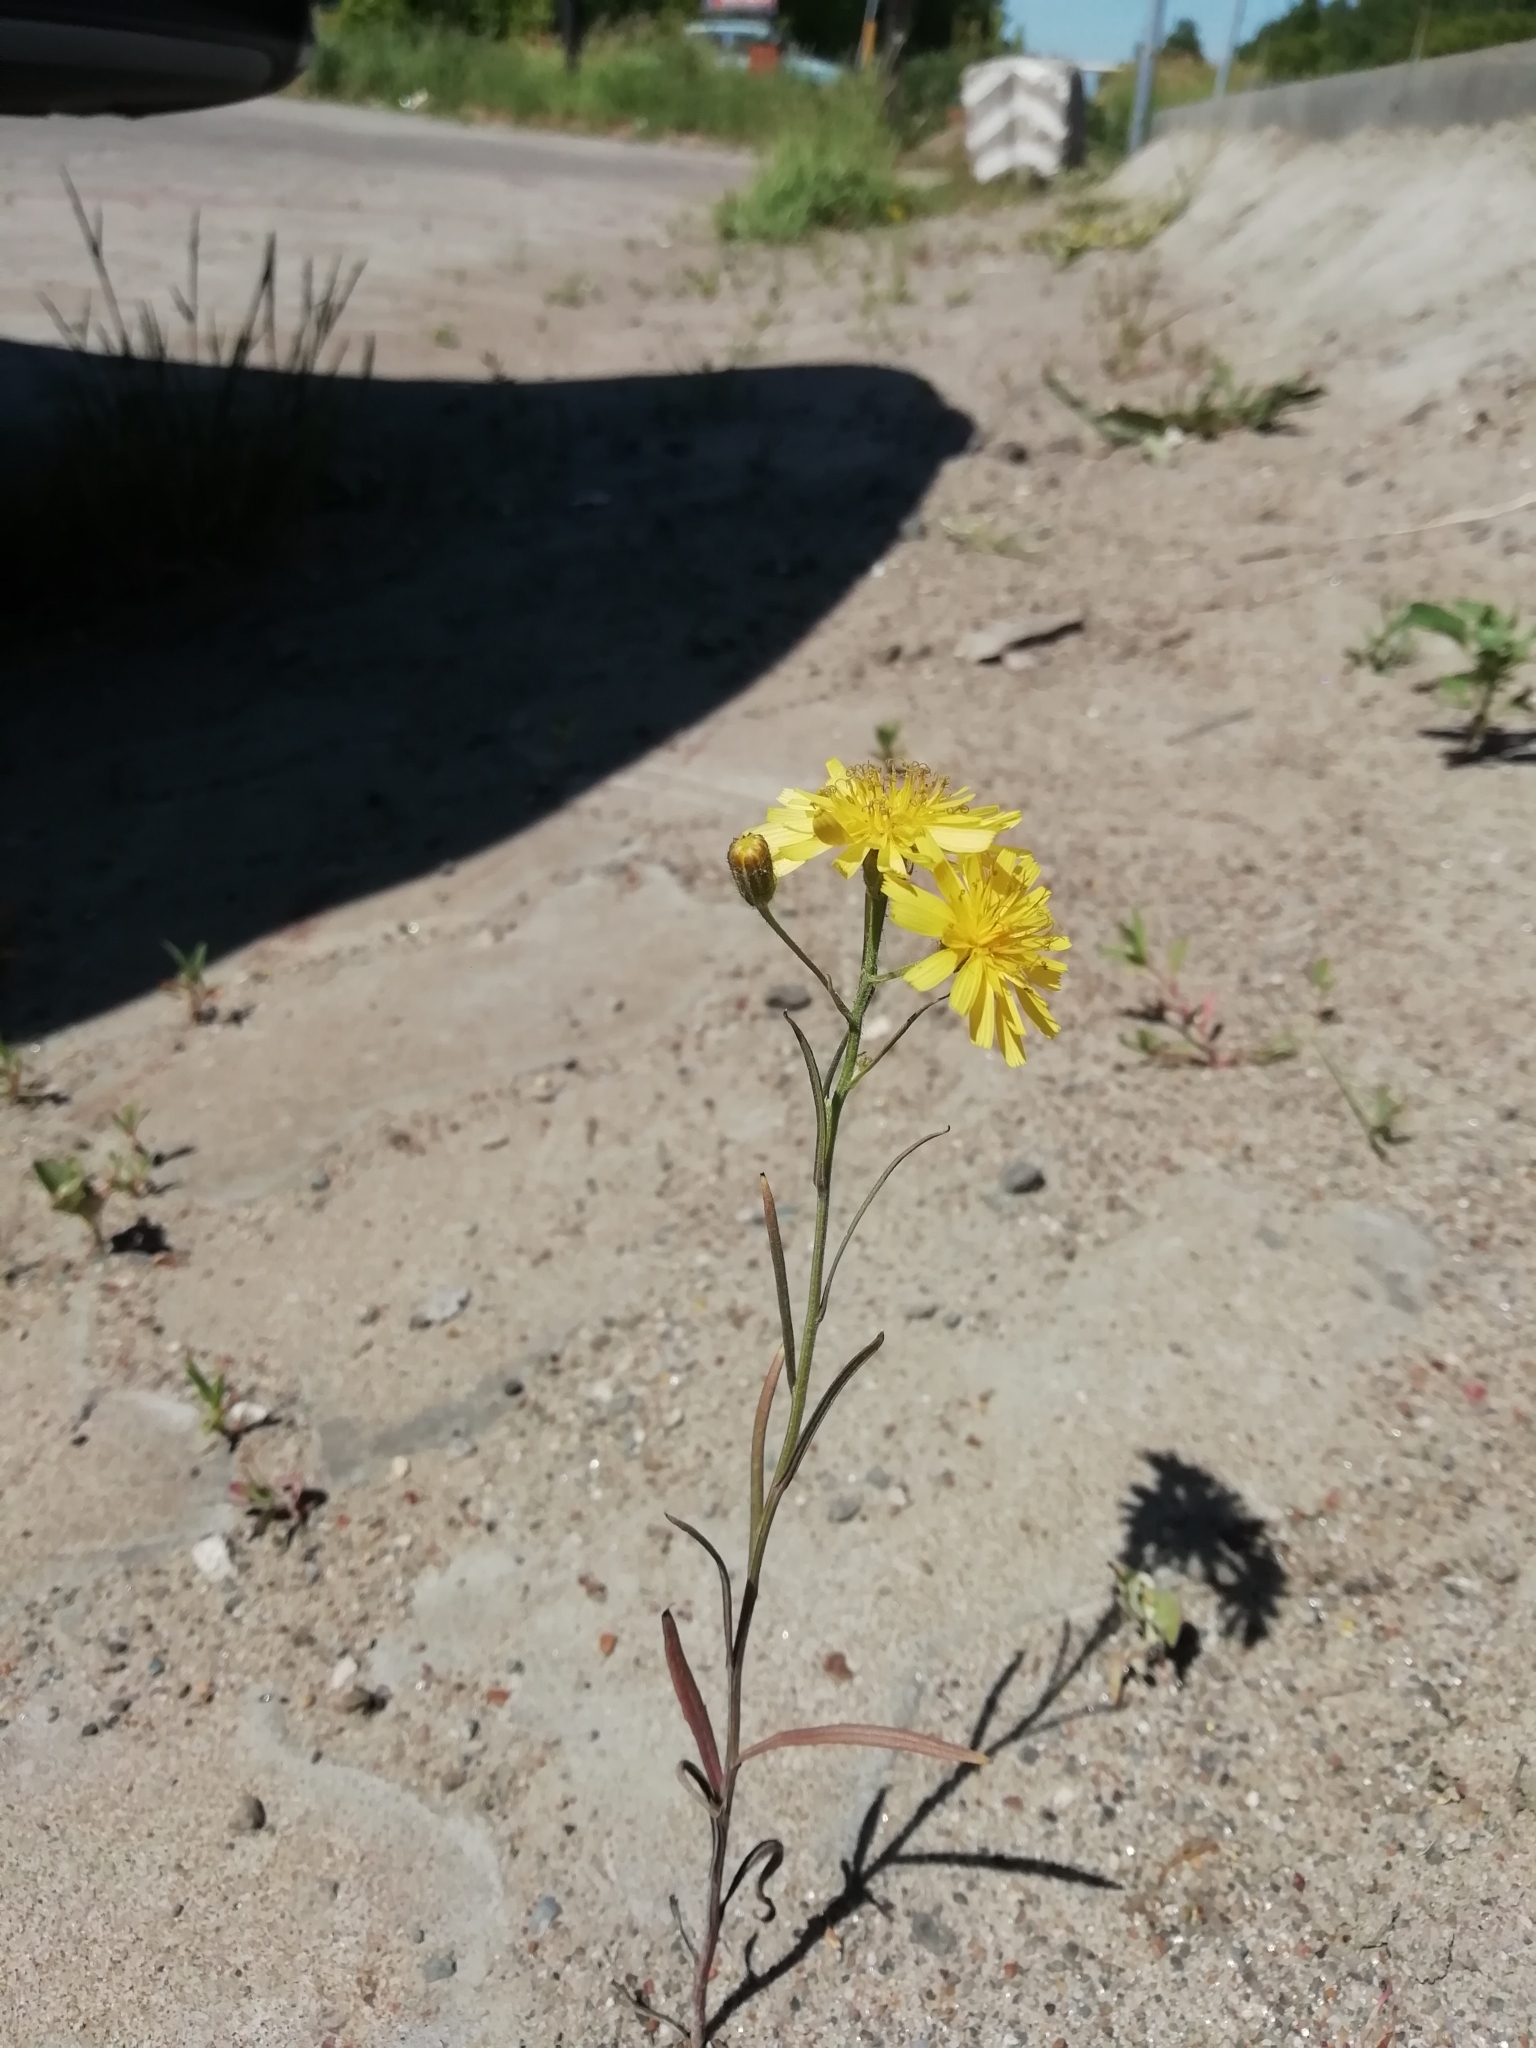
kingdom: Plantae
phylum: Tracheophyta
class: Magnoliopsida
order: Asterales
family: Asteraceae
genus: Crepis
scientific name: Crepis tectorum
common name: Narrow-leaved hawk's-beard
